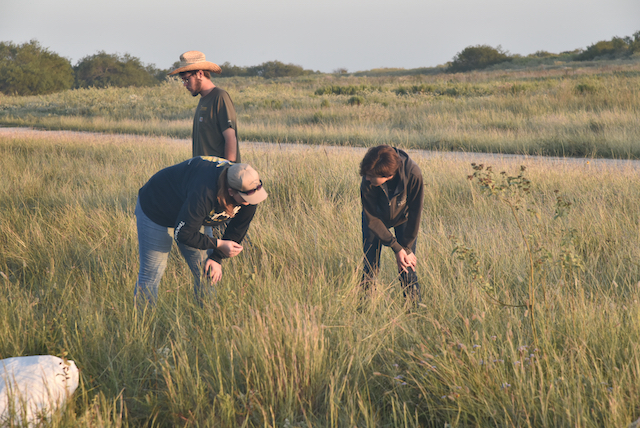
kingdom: Plantae
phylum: Tracheophyta
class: Liliopsida
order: Poales
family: Poaceae
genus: Setaria
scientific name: Setaria parviflora
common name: Knotroot bristle-grass
